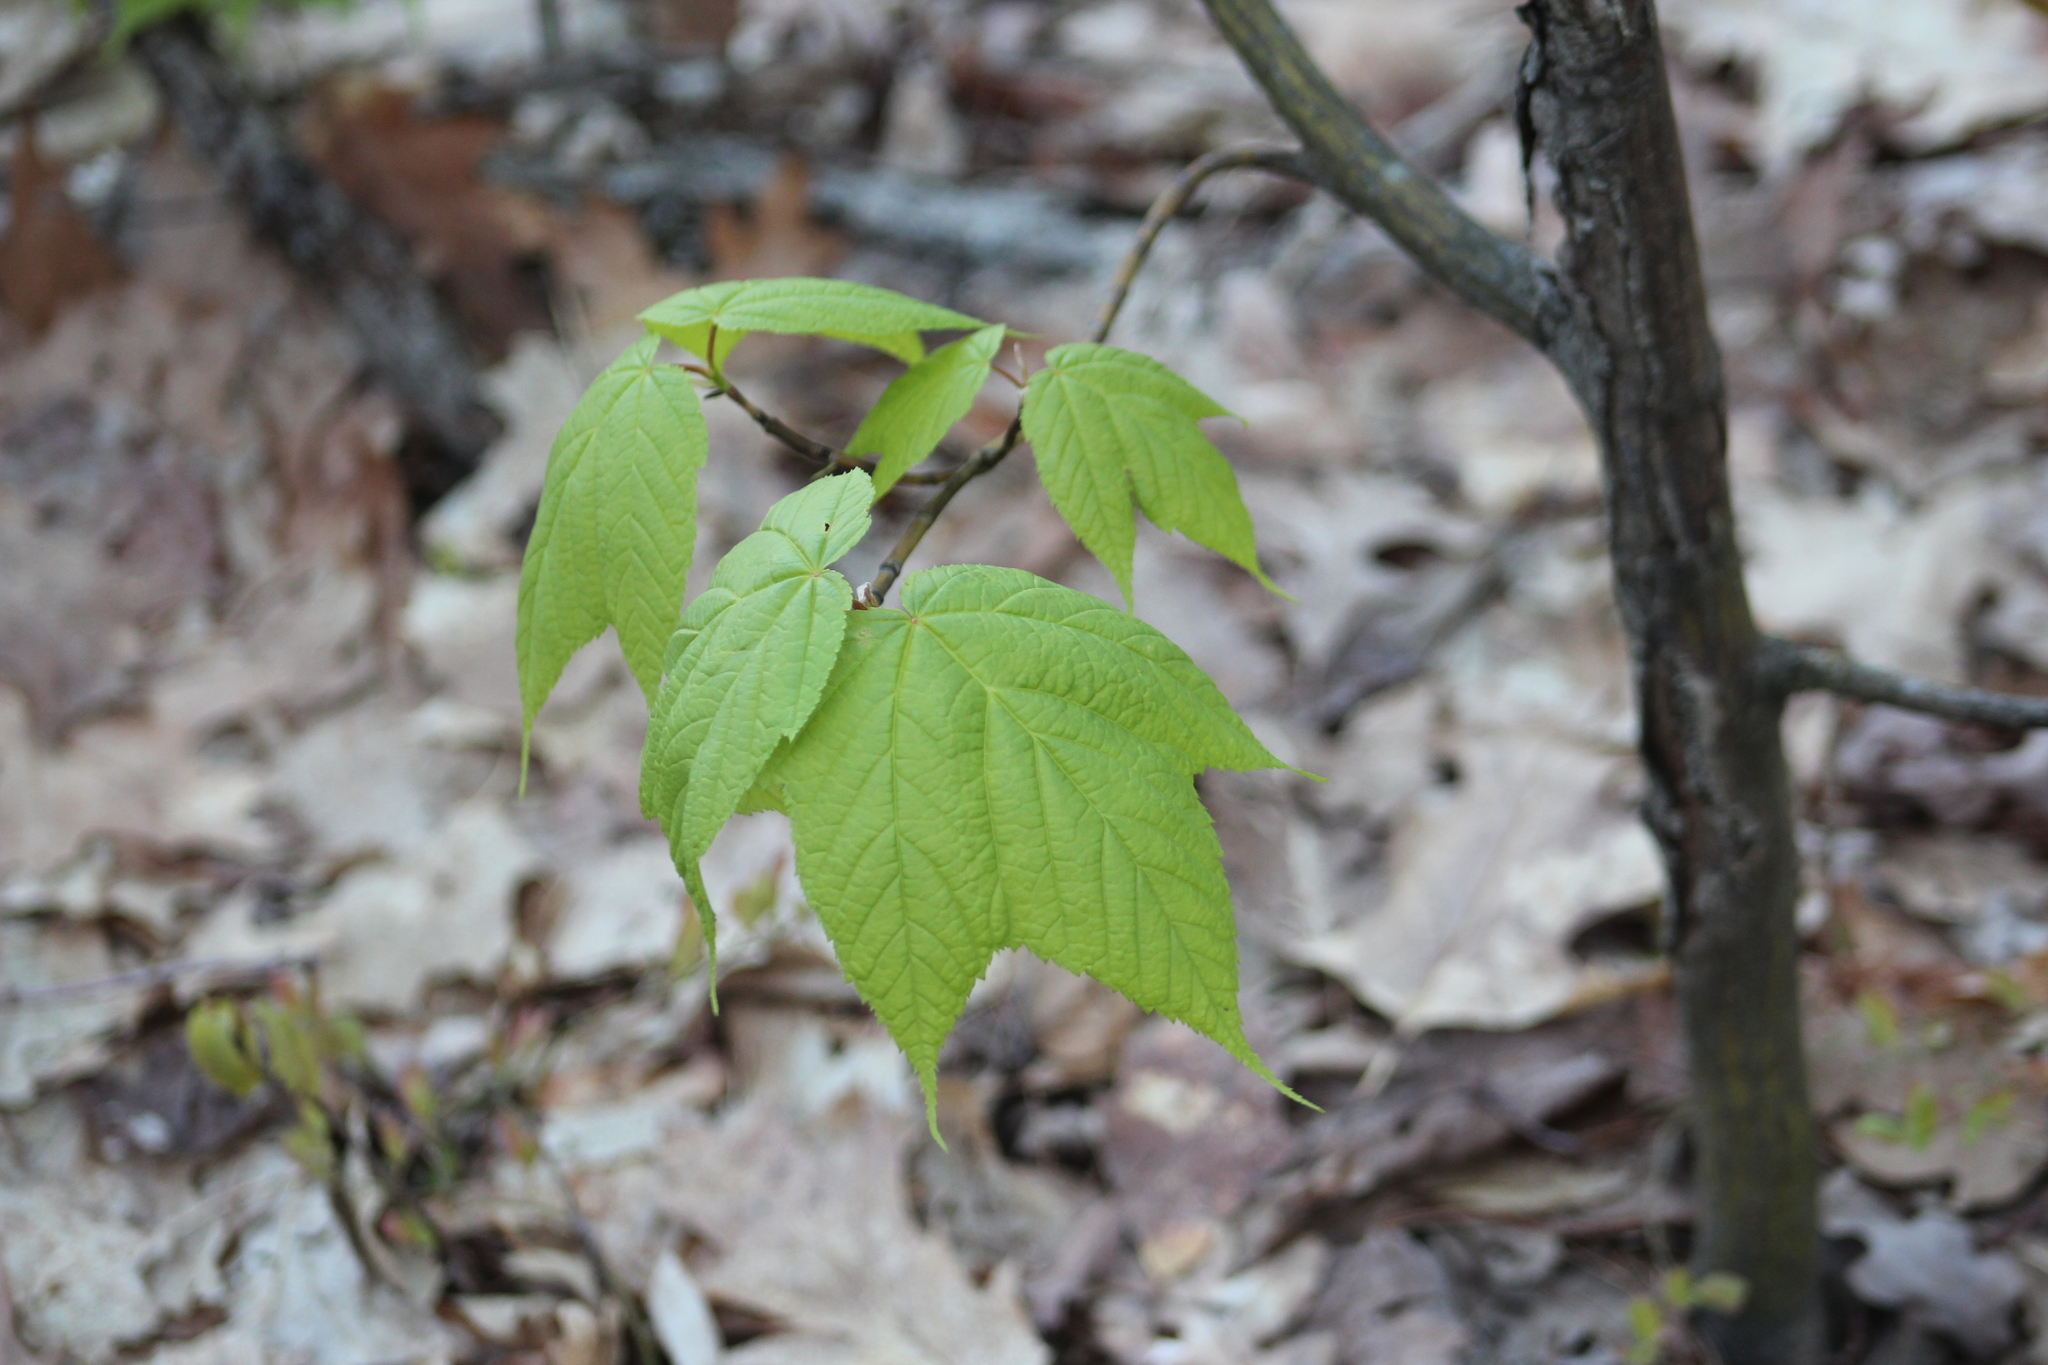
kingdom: Plantae
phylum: Tracheophyta
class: Magnoliopsida
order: Sapindales
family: Sapindaceae
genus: Acer
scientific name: Acer pensylvanicum
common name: Moosewood
